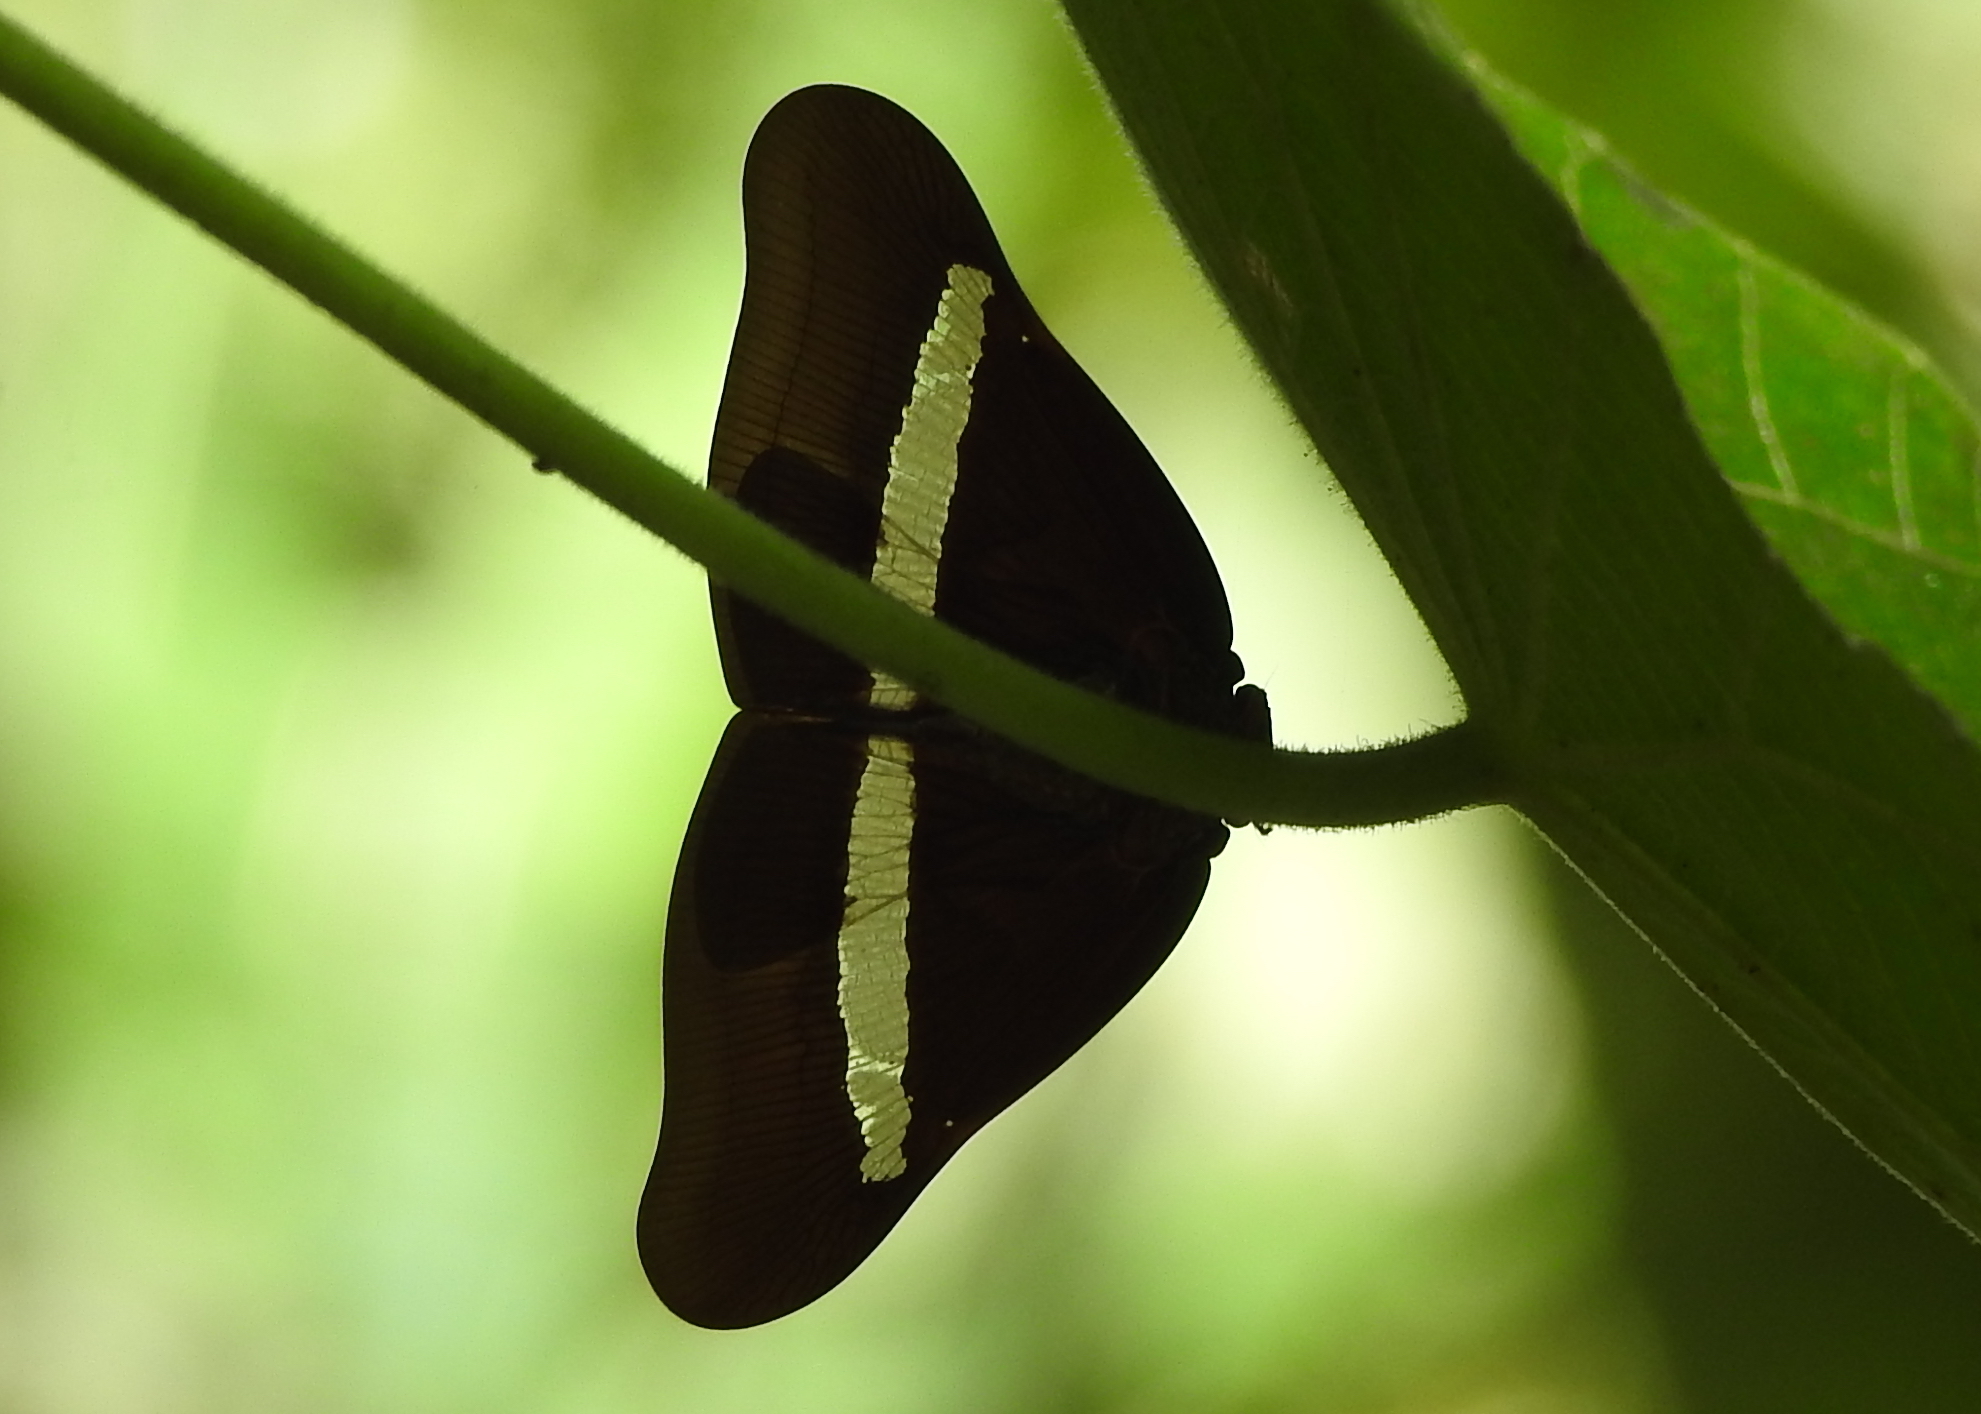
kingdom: Animalia
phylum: Arthropoda
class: Insecta
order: Hemiptera
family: Ricaniidae
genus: Pochazia
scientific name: Pochazia sinuata
